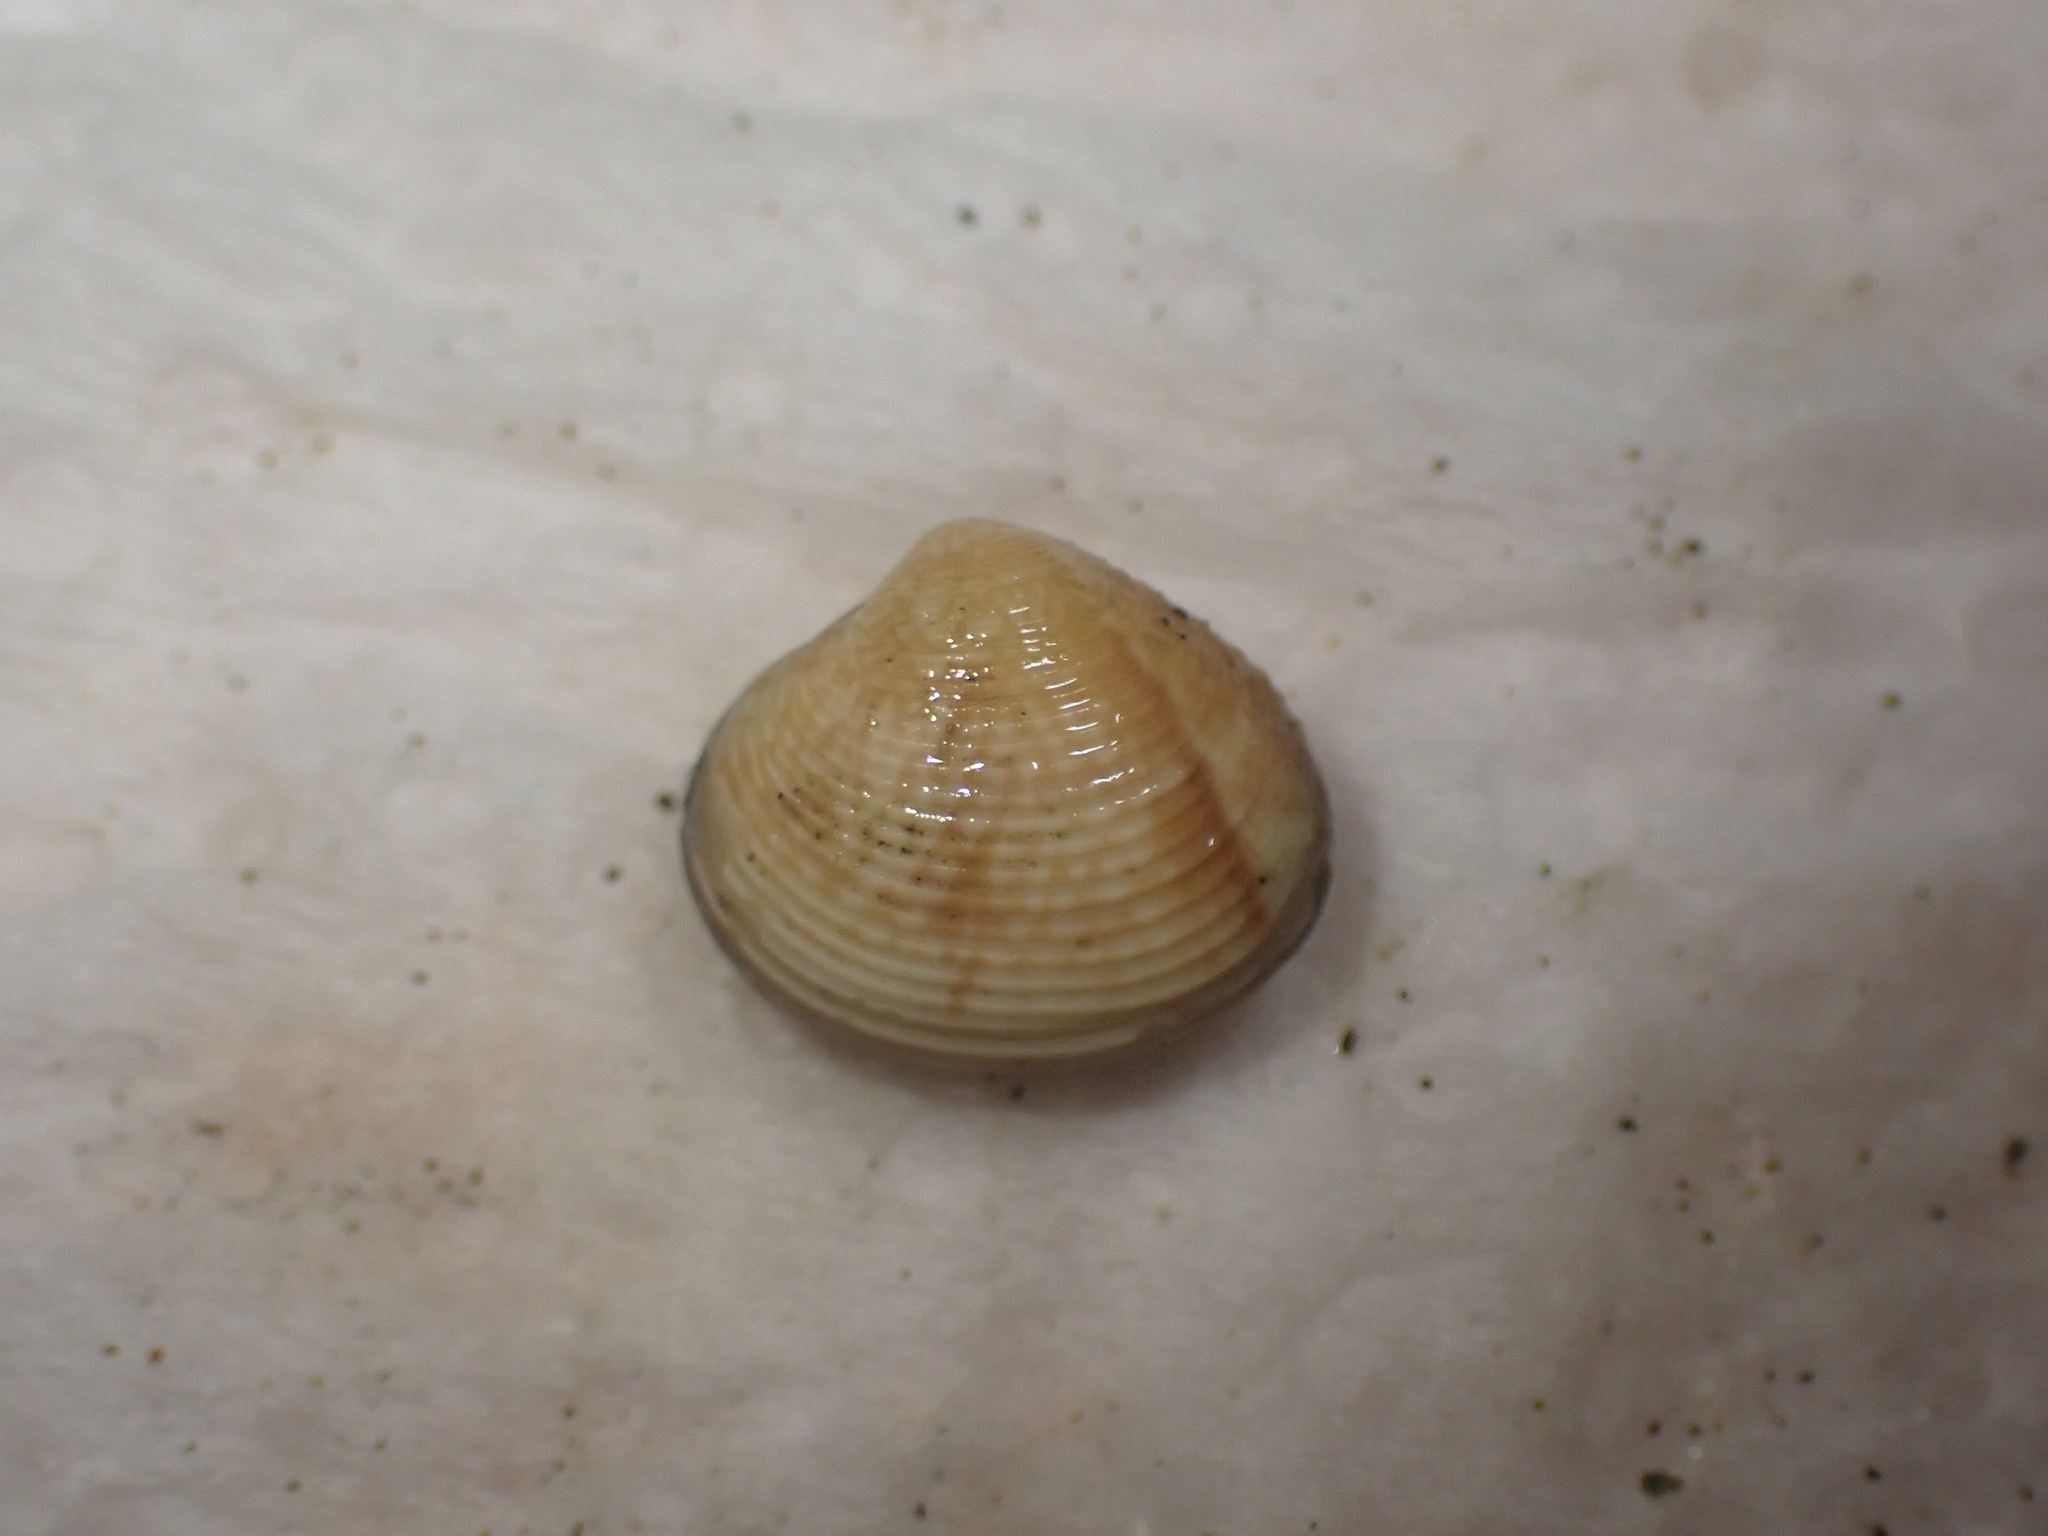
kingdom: Animalia
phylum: Mollusca
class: Bivalvia
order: Venerida
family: Veneridae
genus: Tawera
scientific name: Tawera spissa
